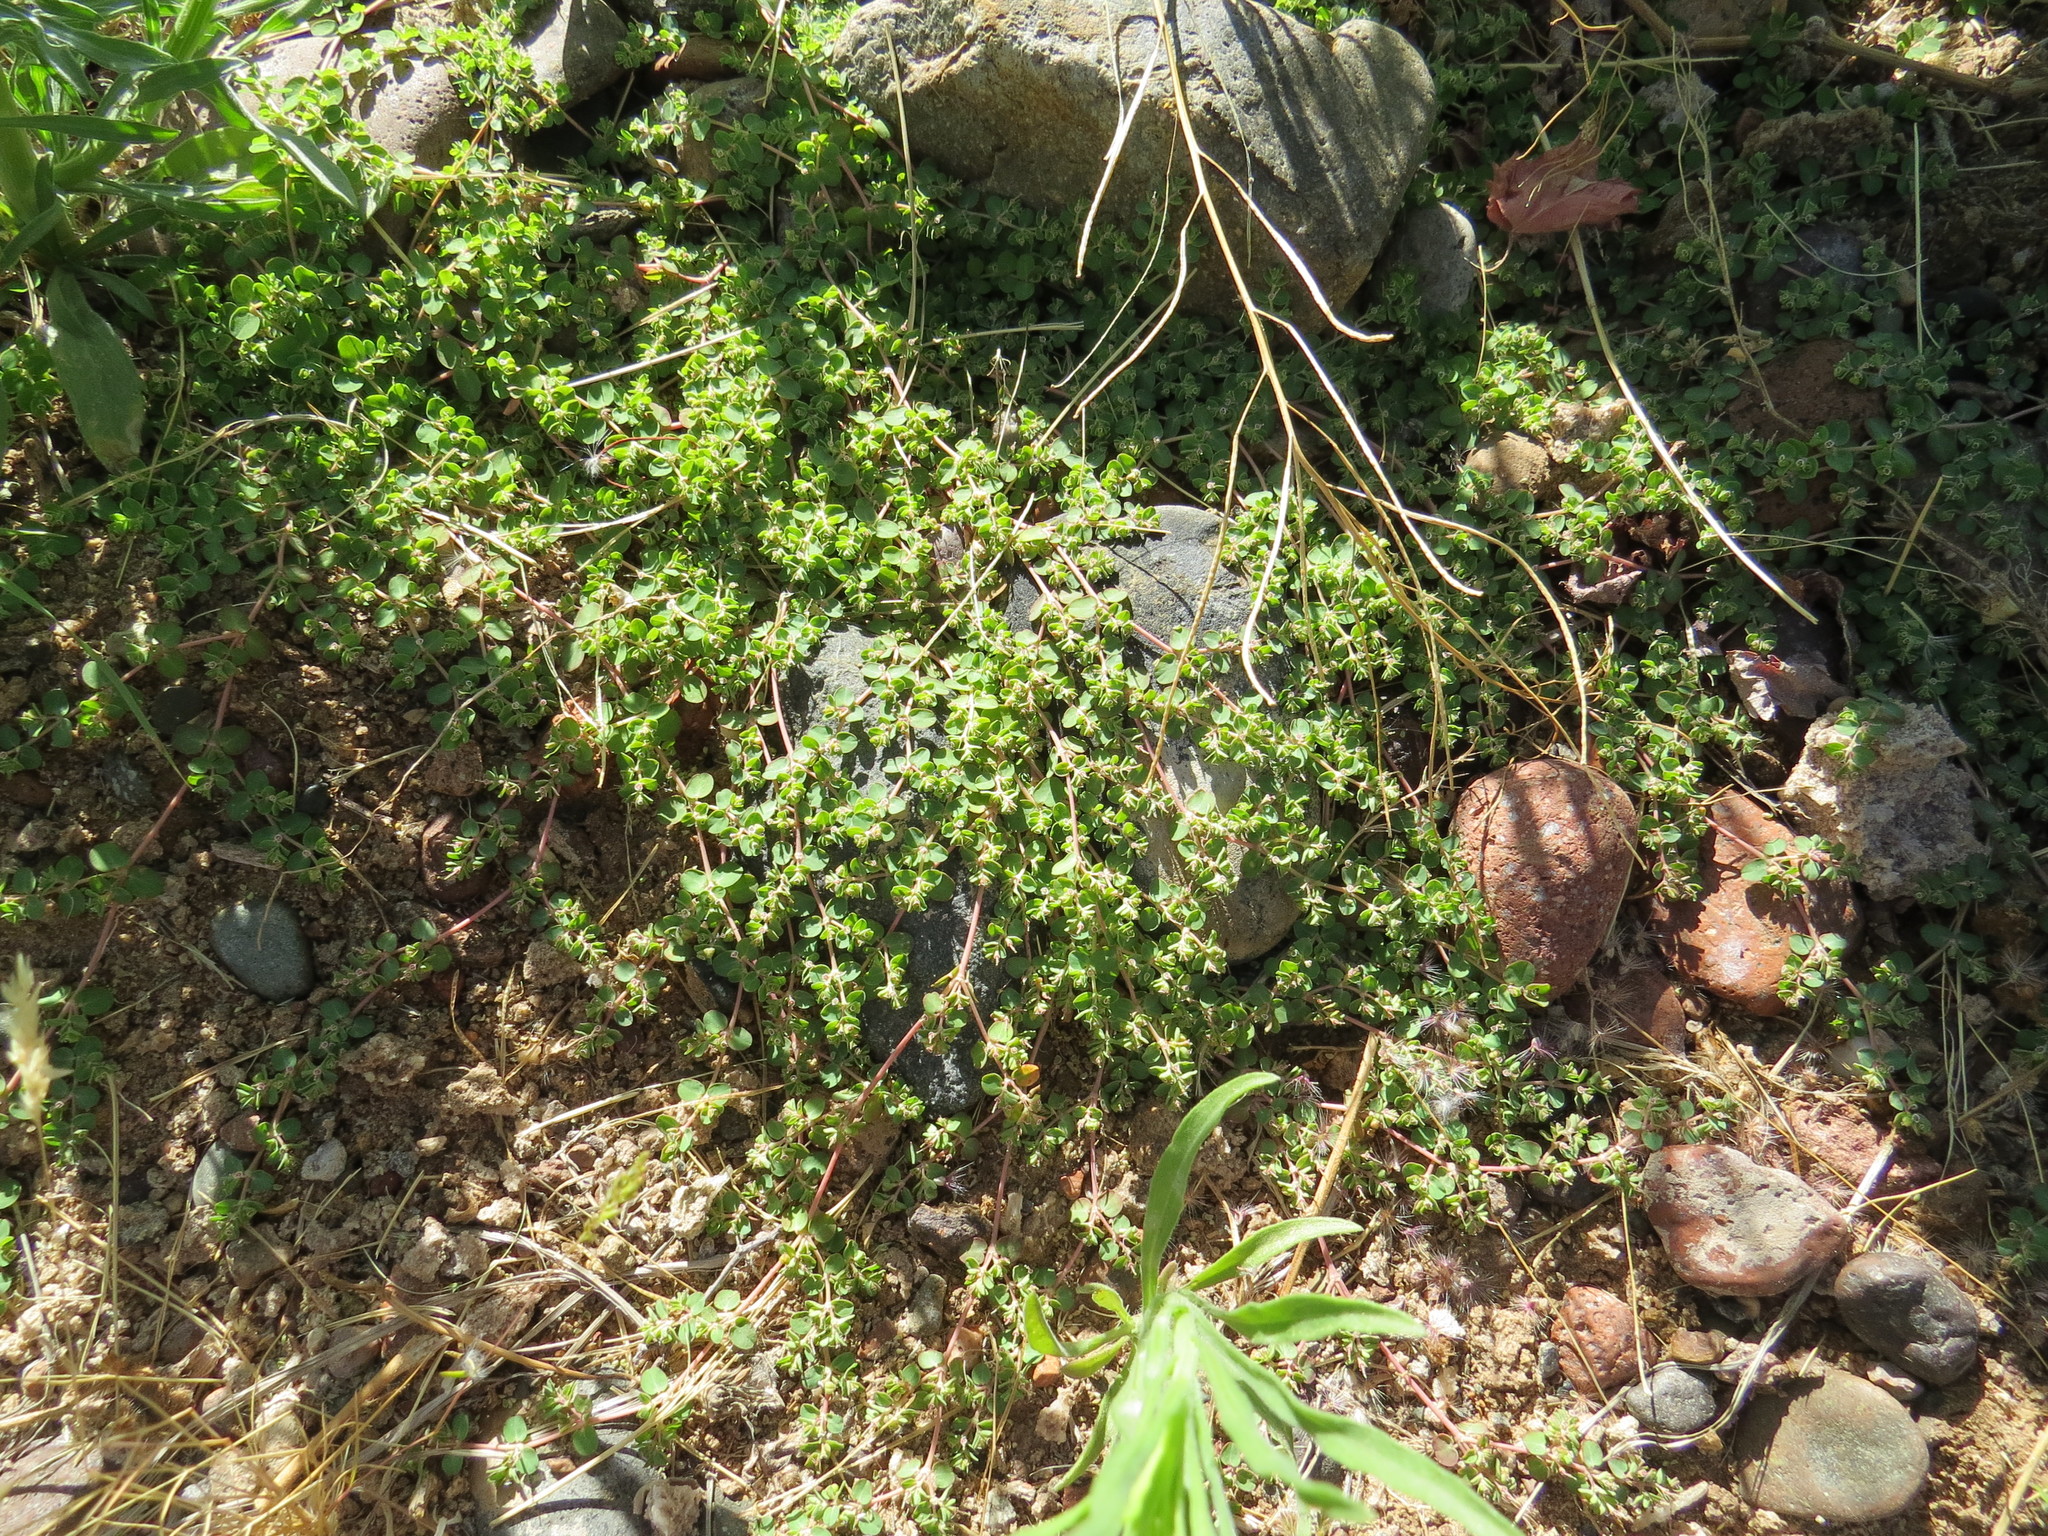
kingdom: Plantae
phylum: Tracheophyta
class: Magnoliopsida
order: Malpighiales
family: Euphorbiaceae
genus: Euphorbia
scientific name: Euphorbia serpens
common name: Matted sandmat
